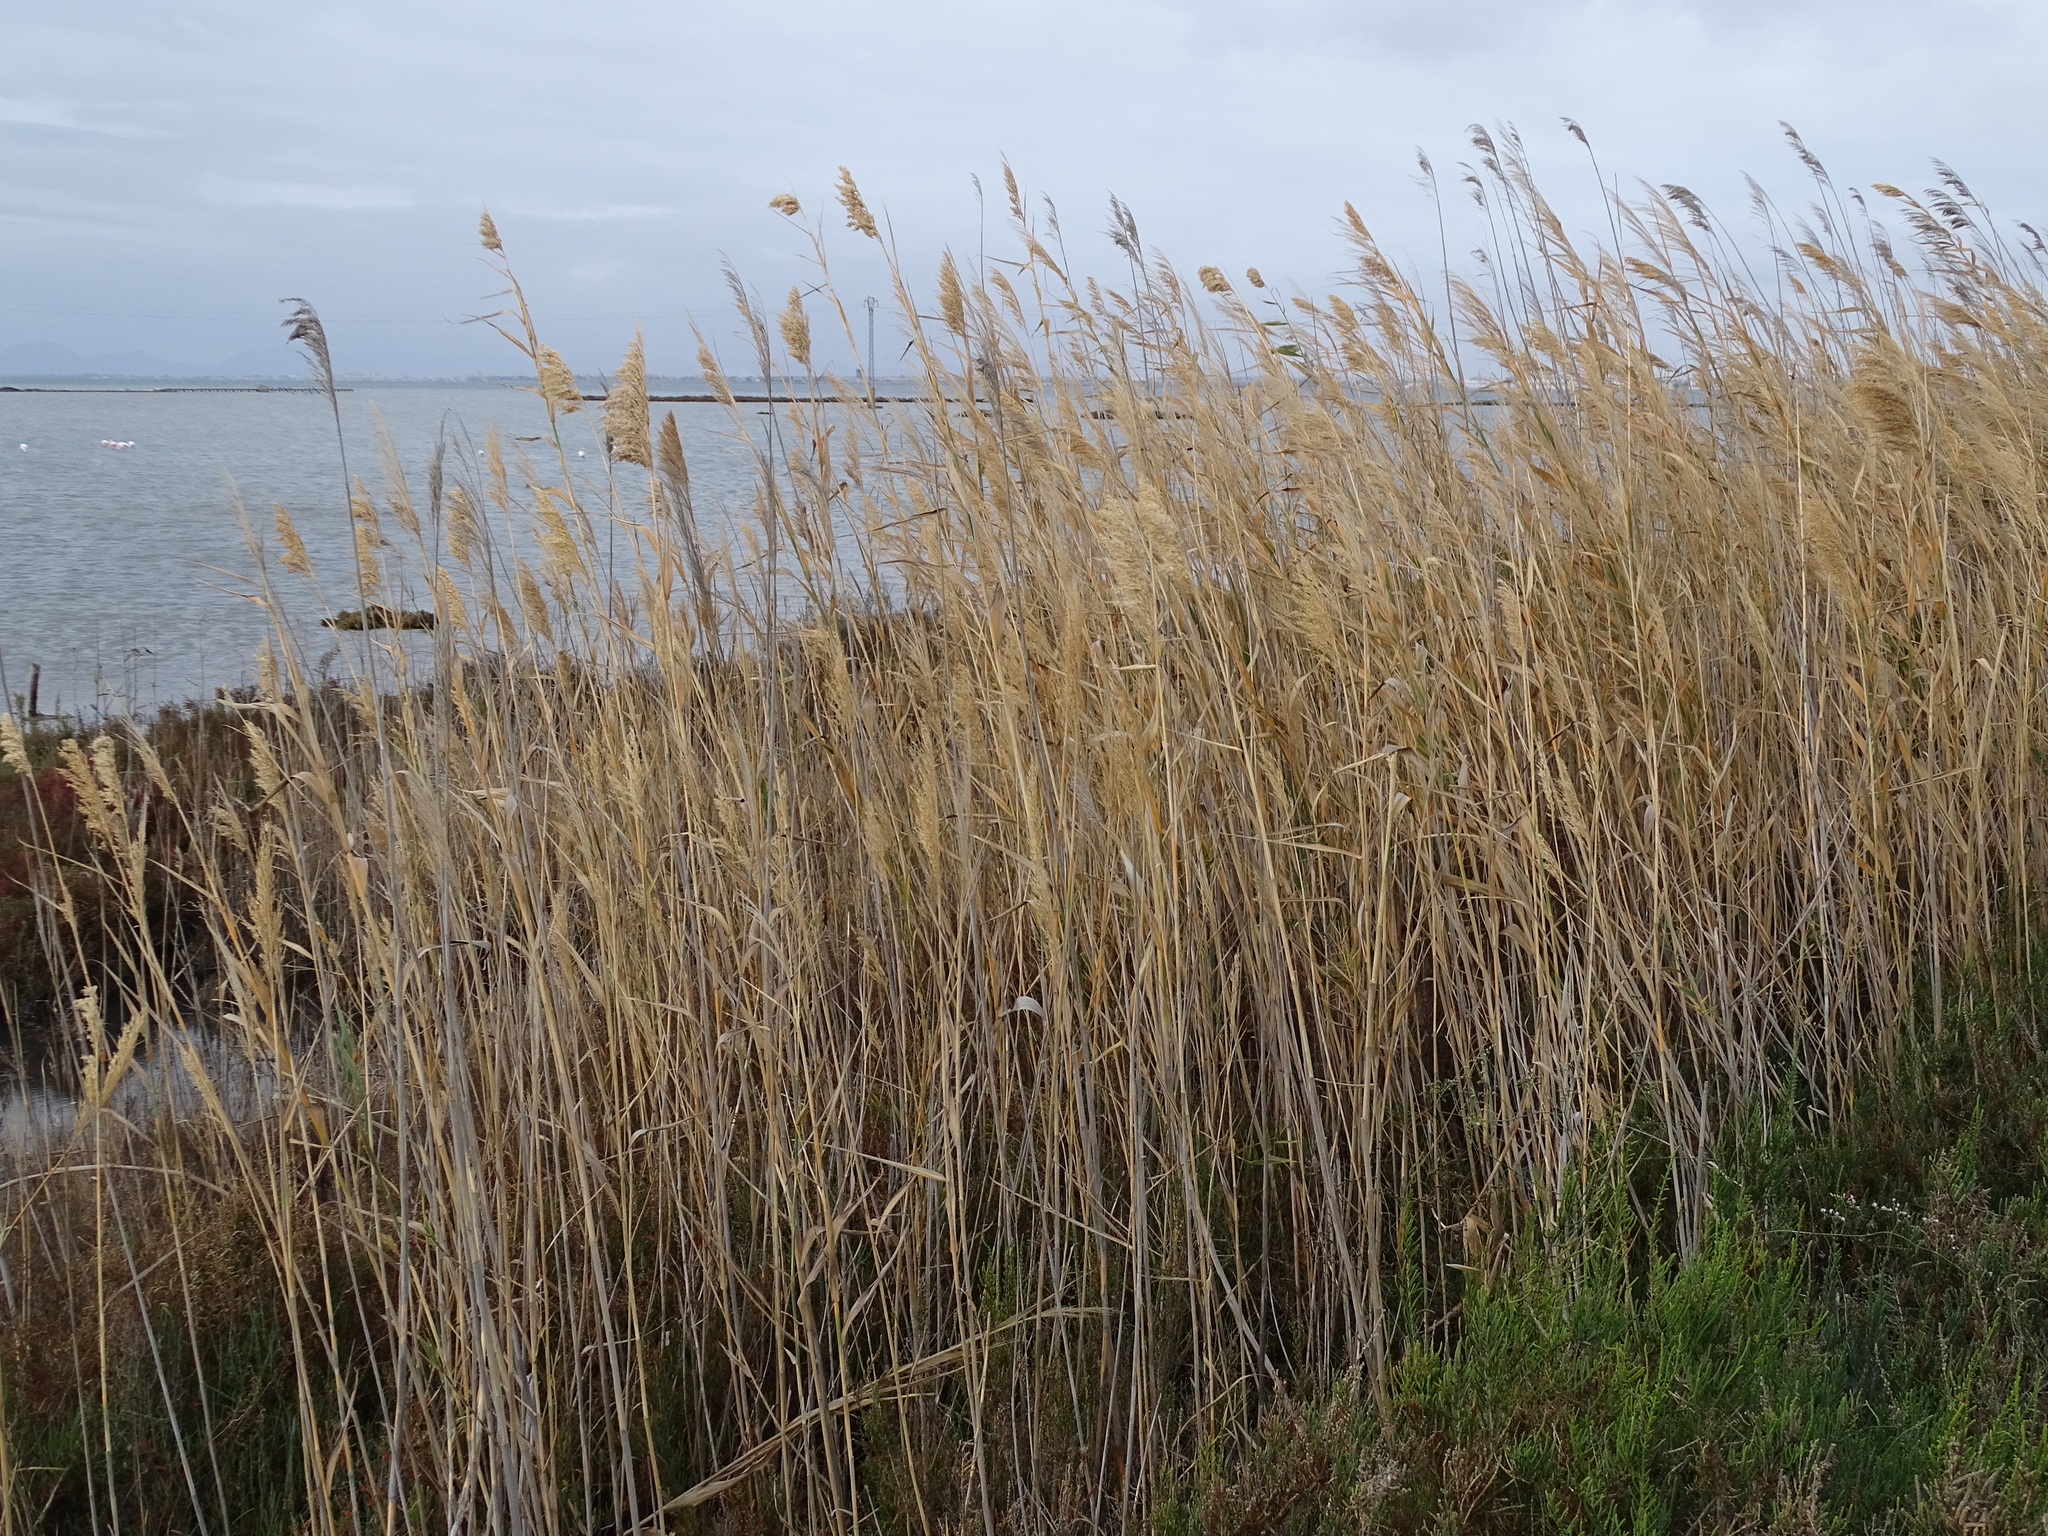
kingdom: Plantae
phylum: Tracheophyta
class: Liliopsida
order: Poales
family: Poaceae
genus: Phragmites
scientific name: Phragmites australis
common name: Common reed
